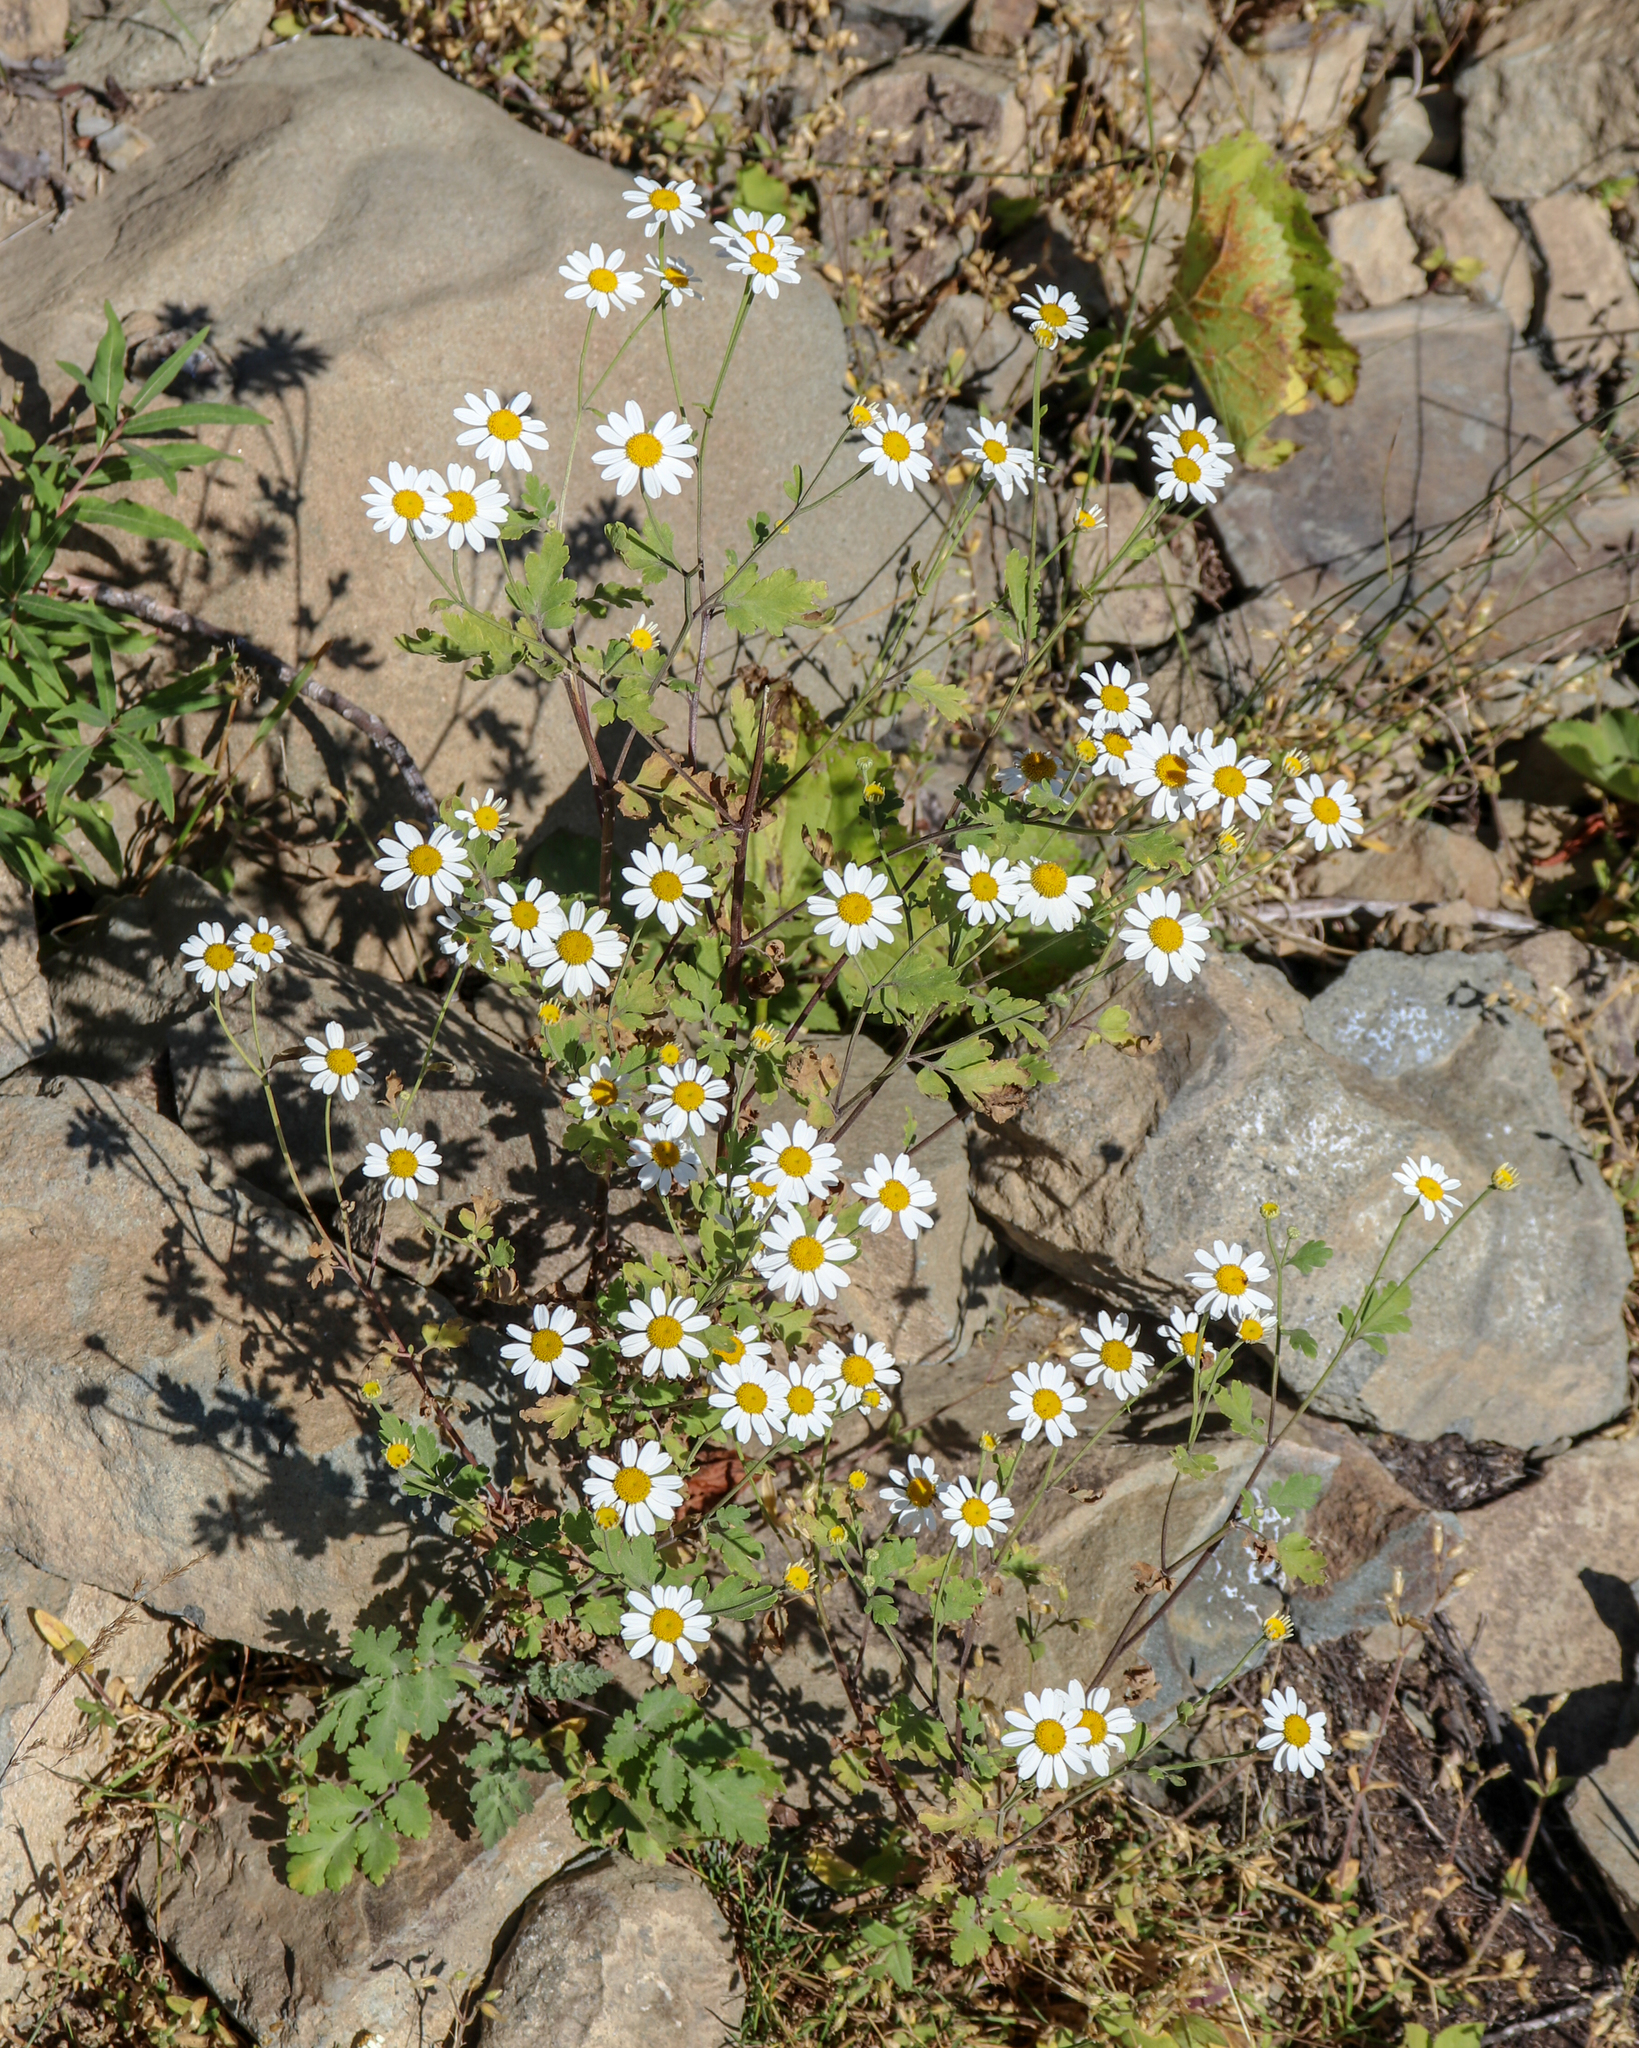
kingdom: Plantae
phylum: Tracheophyta
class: Magnoliopsida
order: Asterales
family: Asteraceae
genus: Tanacetum
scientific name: Tanacetum partheniifolium
